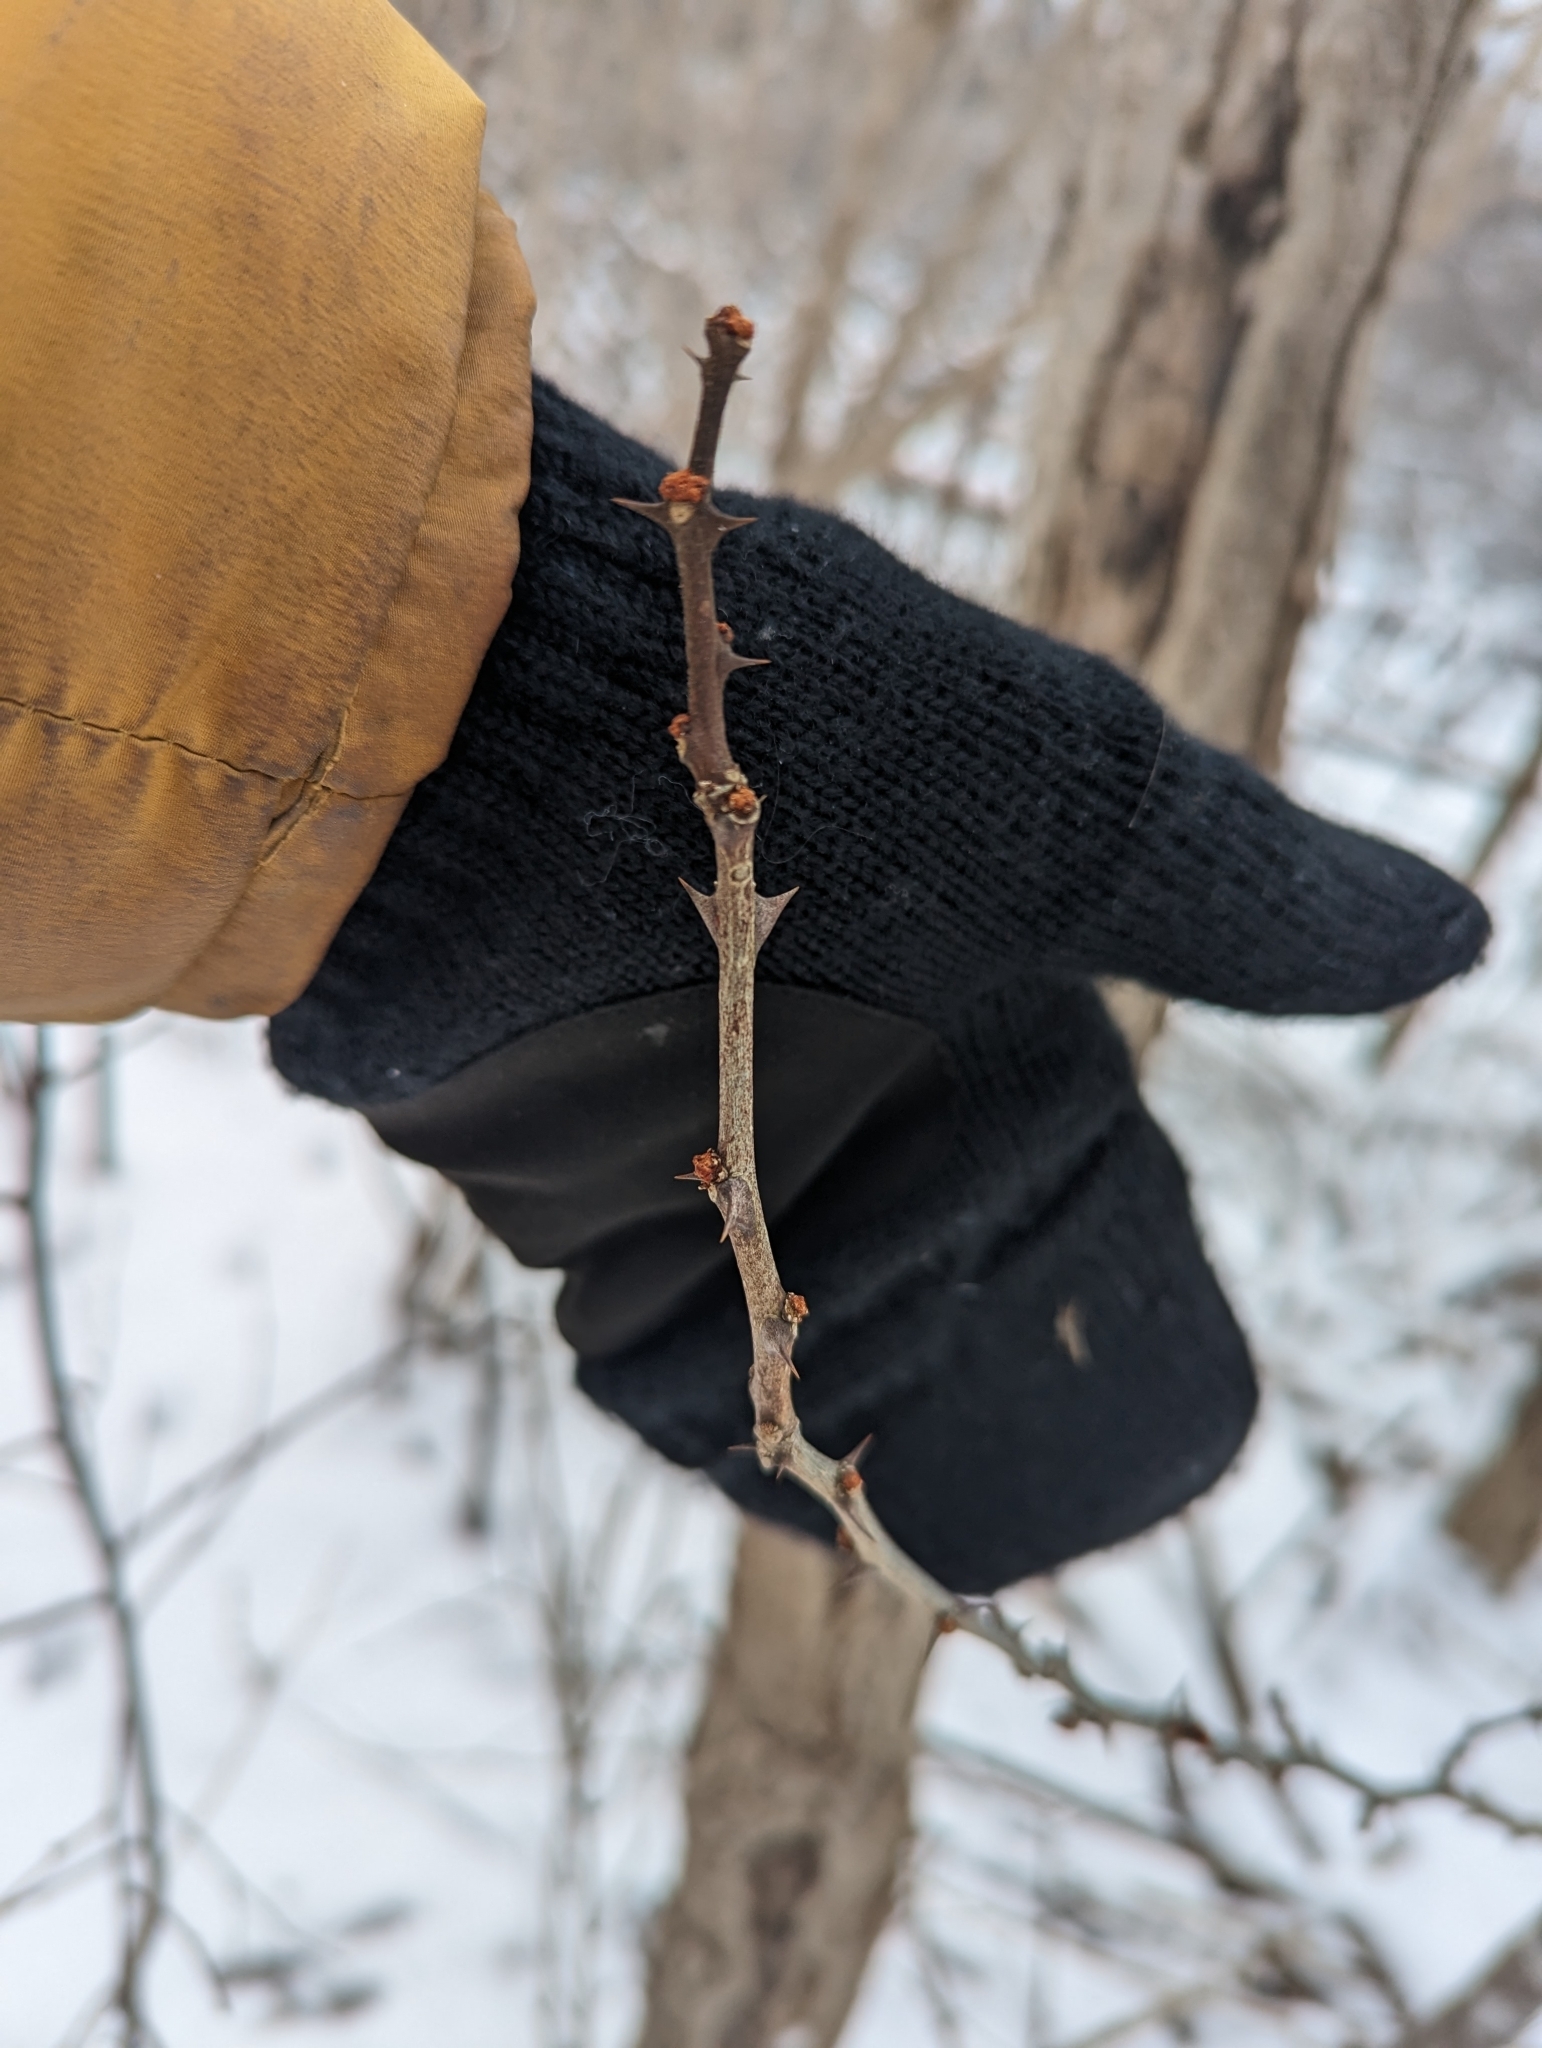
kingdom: Plantae
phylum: Tracheophyta
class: Magnoliopsida
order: Sapindales
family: Rutaceae
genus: Zanthoxylum
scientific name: Zanthoxylum americanum
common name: Northern prickly-ash
